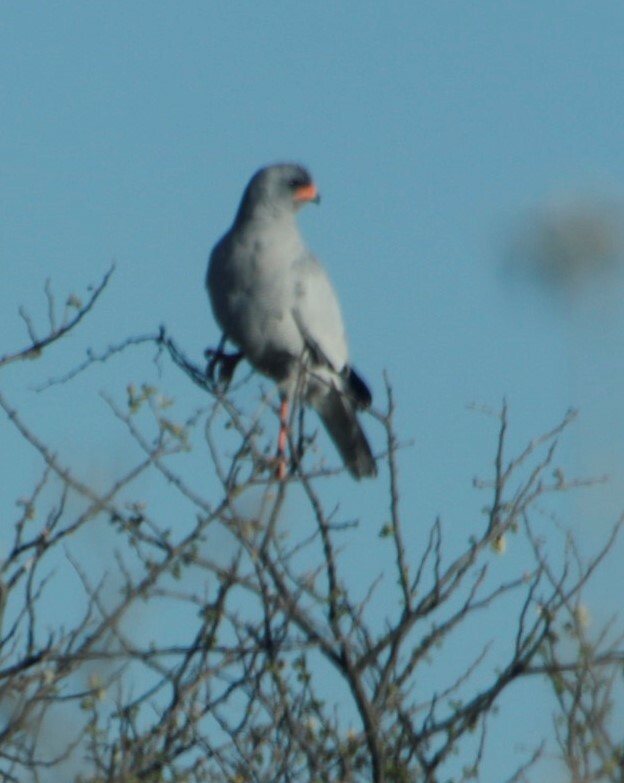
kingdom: Animalia
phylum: Chordata
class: Aves
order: Accipitriformes
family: Accipitridae
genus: Melierax
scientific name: Melierax canorus
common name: Pale chanting-goshawk
